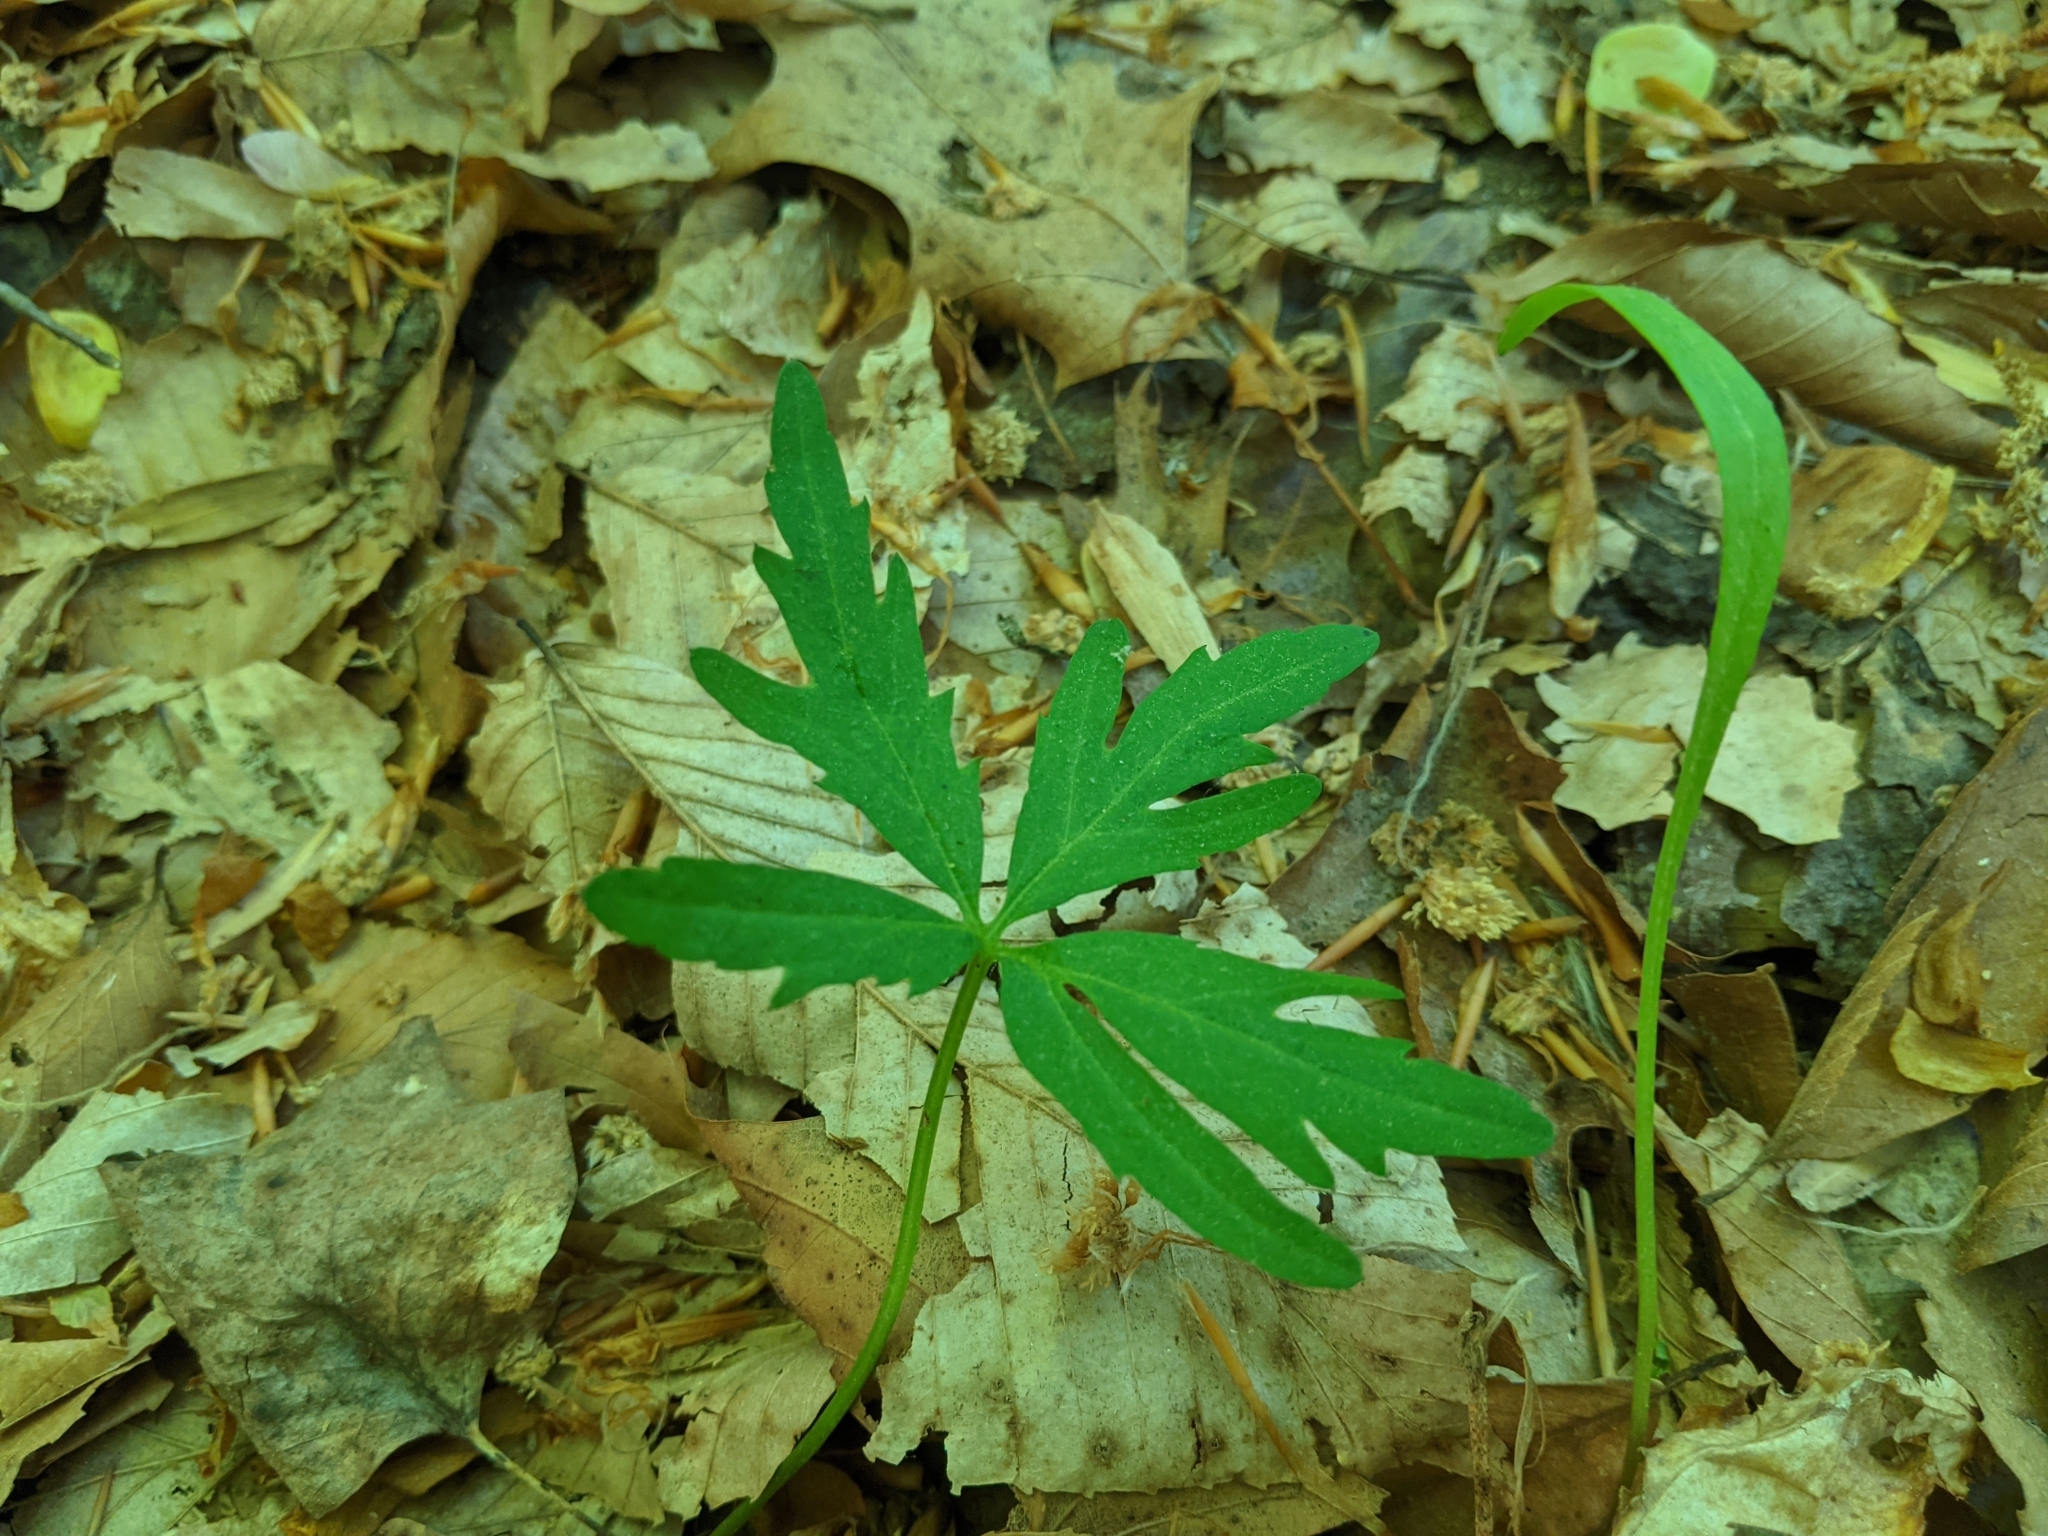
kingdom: Plantae
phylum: Tracheophyta
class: Magnoliopsida
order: Brassicales
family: Brassicaceae
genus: Cardamine
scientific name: Cardamine concatenata
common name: Cut-leaf toothcup
